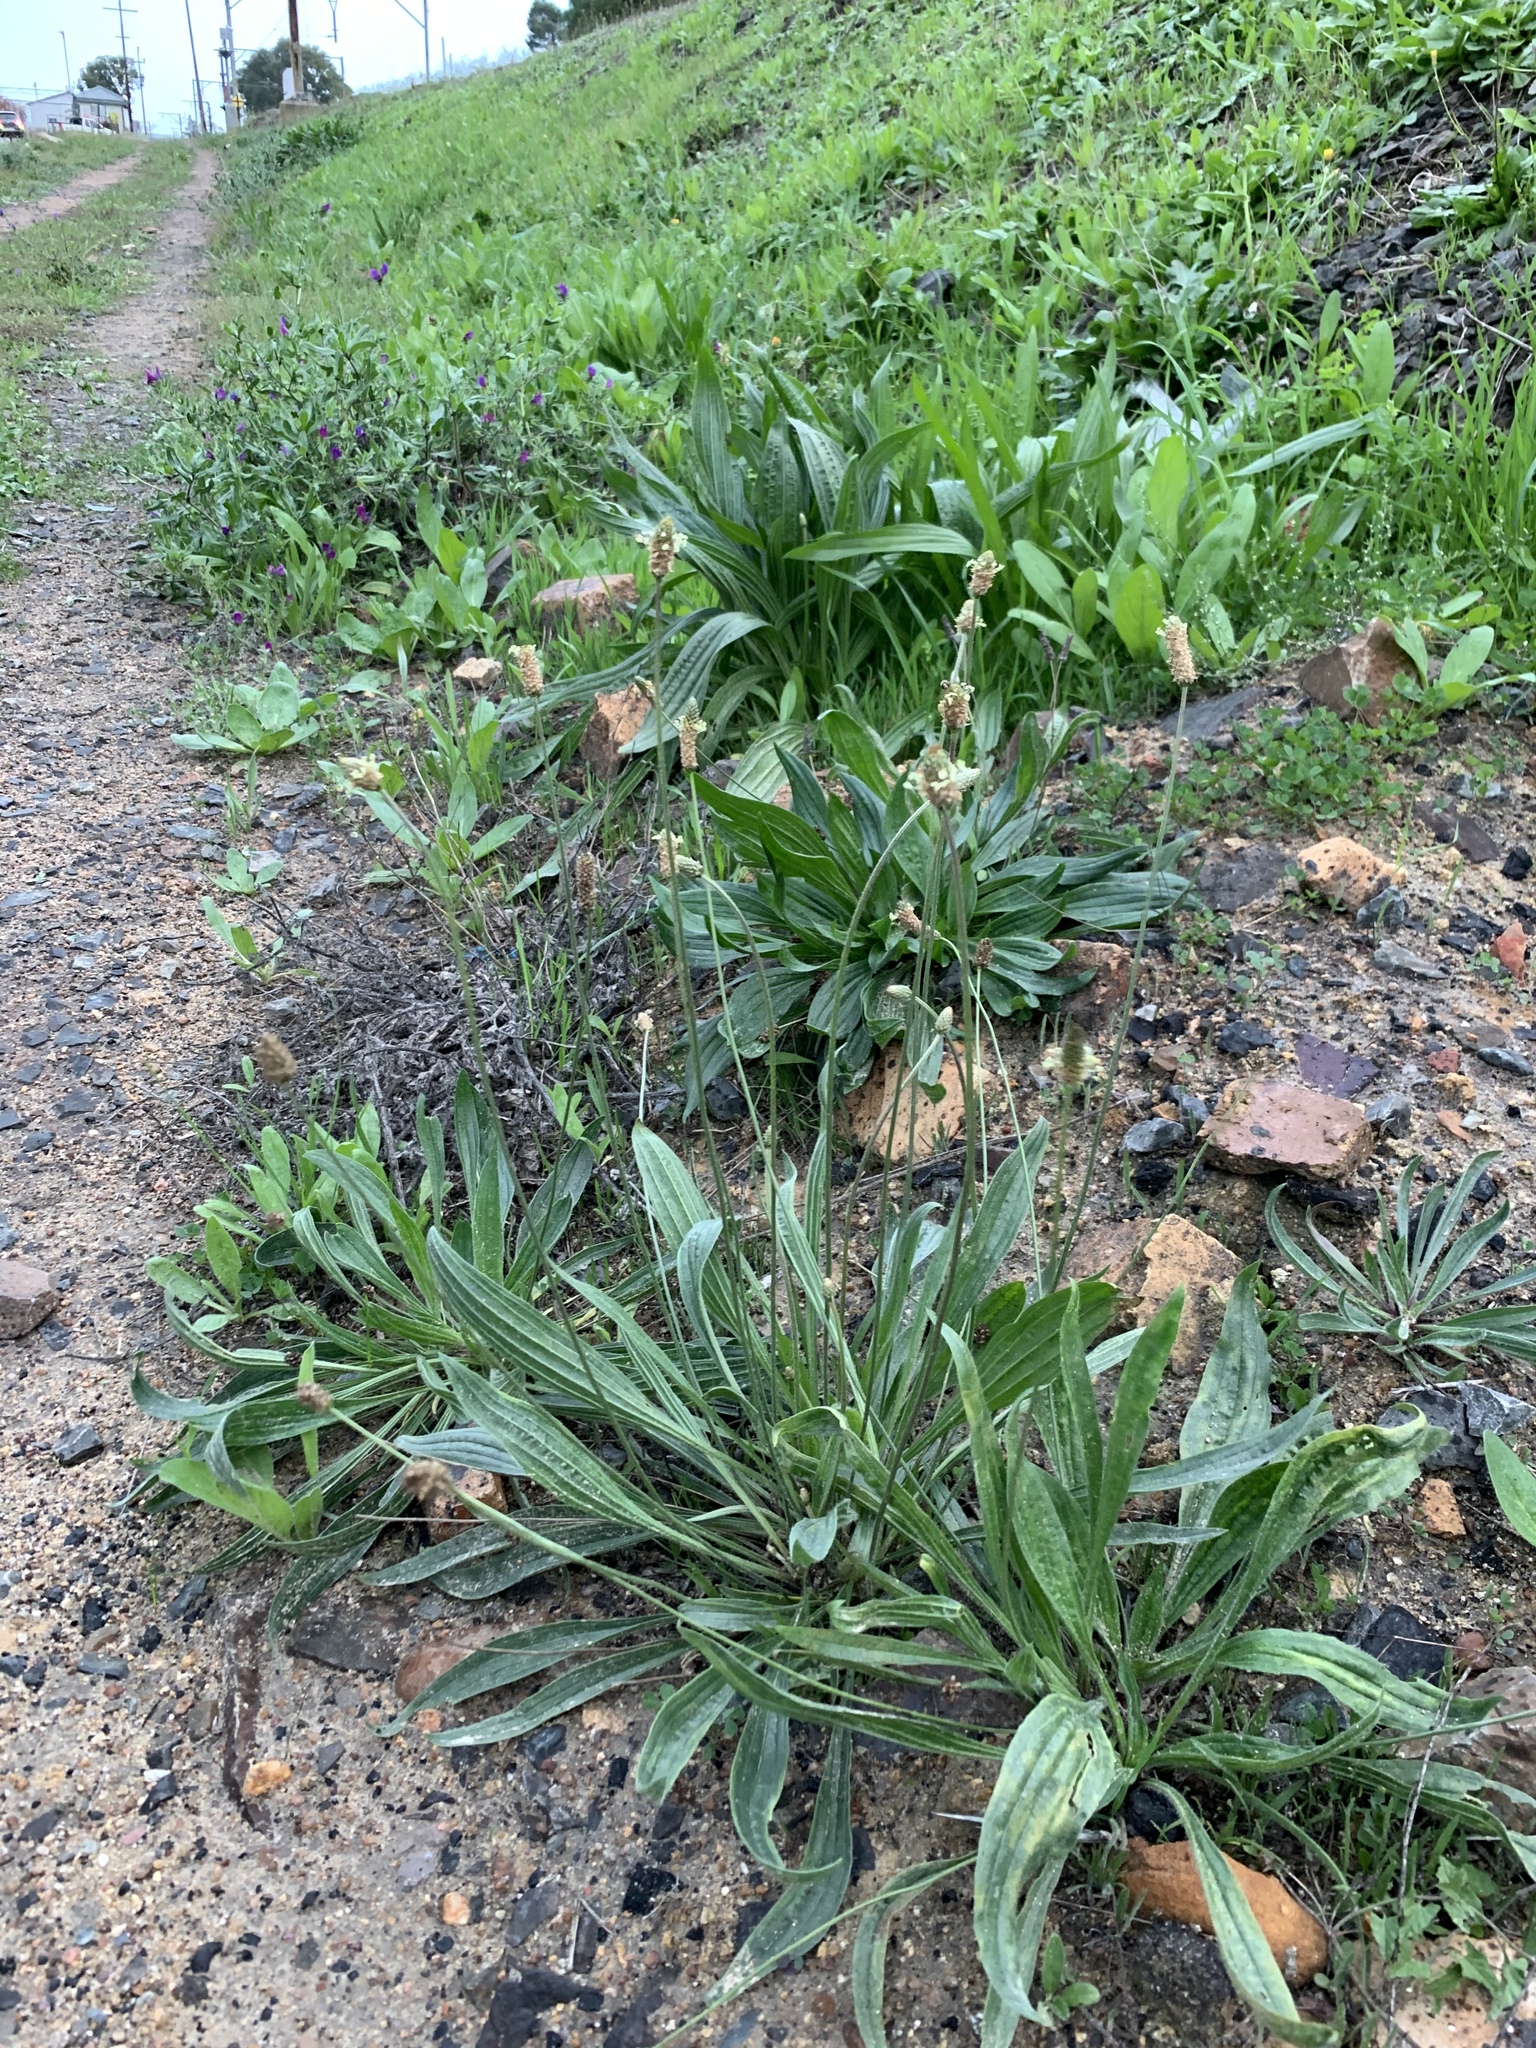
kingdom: Plantae
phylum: Tracheophyta
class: Magnoliopsida
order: Lamiales
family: Plantaginaceae
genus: Plantago
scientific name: Plantago lanceolata
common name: Ribwort plantain
